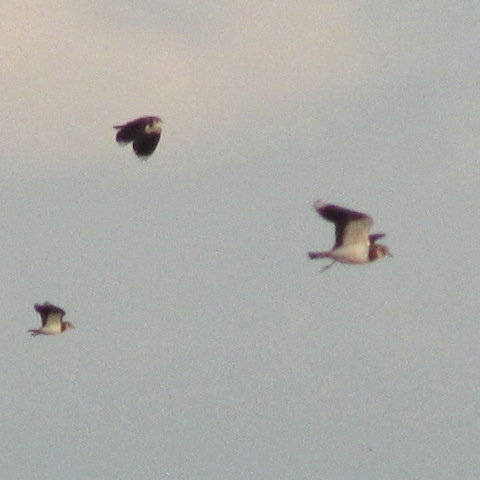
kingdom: Animalia
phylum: Chordata
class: Aves
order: Charadriiformes
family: Charadriidae
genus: Vanellus
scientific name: Vanellus vanellus
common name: Northern lapwing
